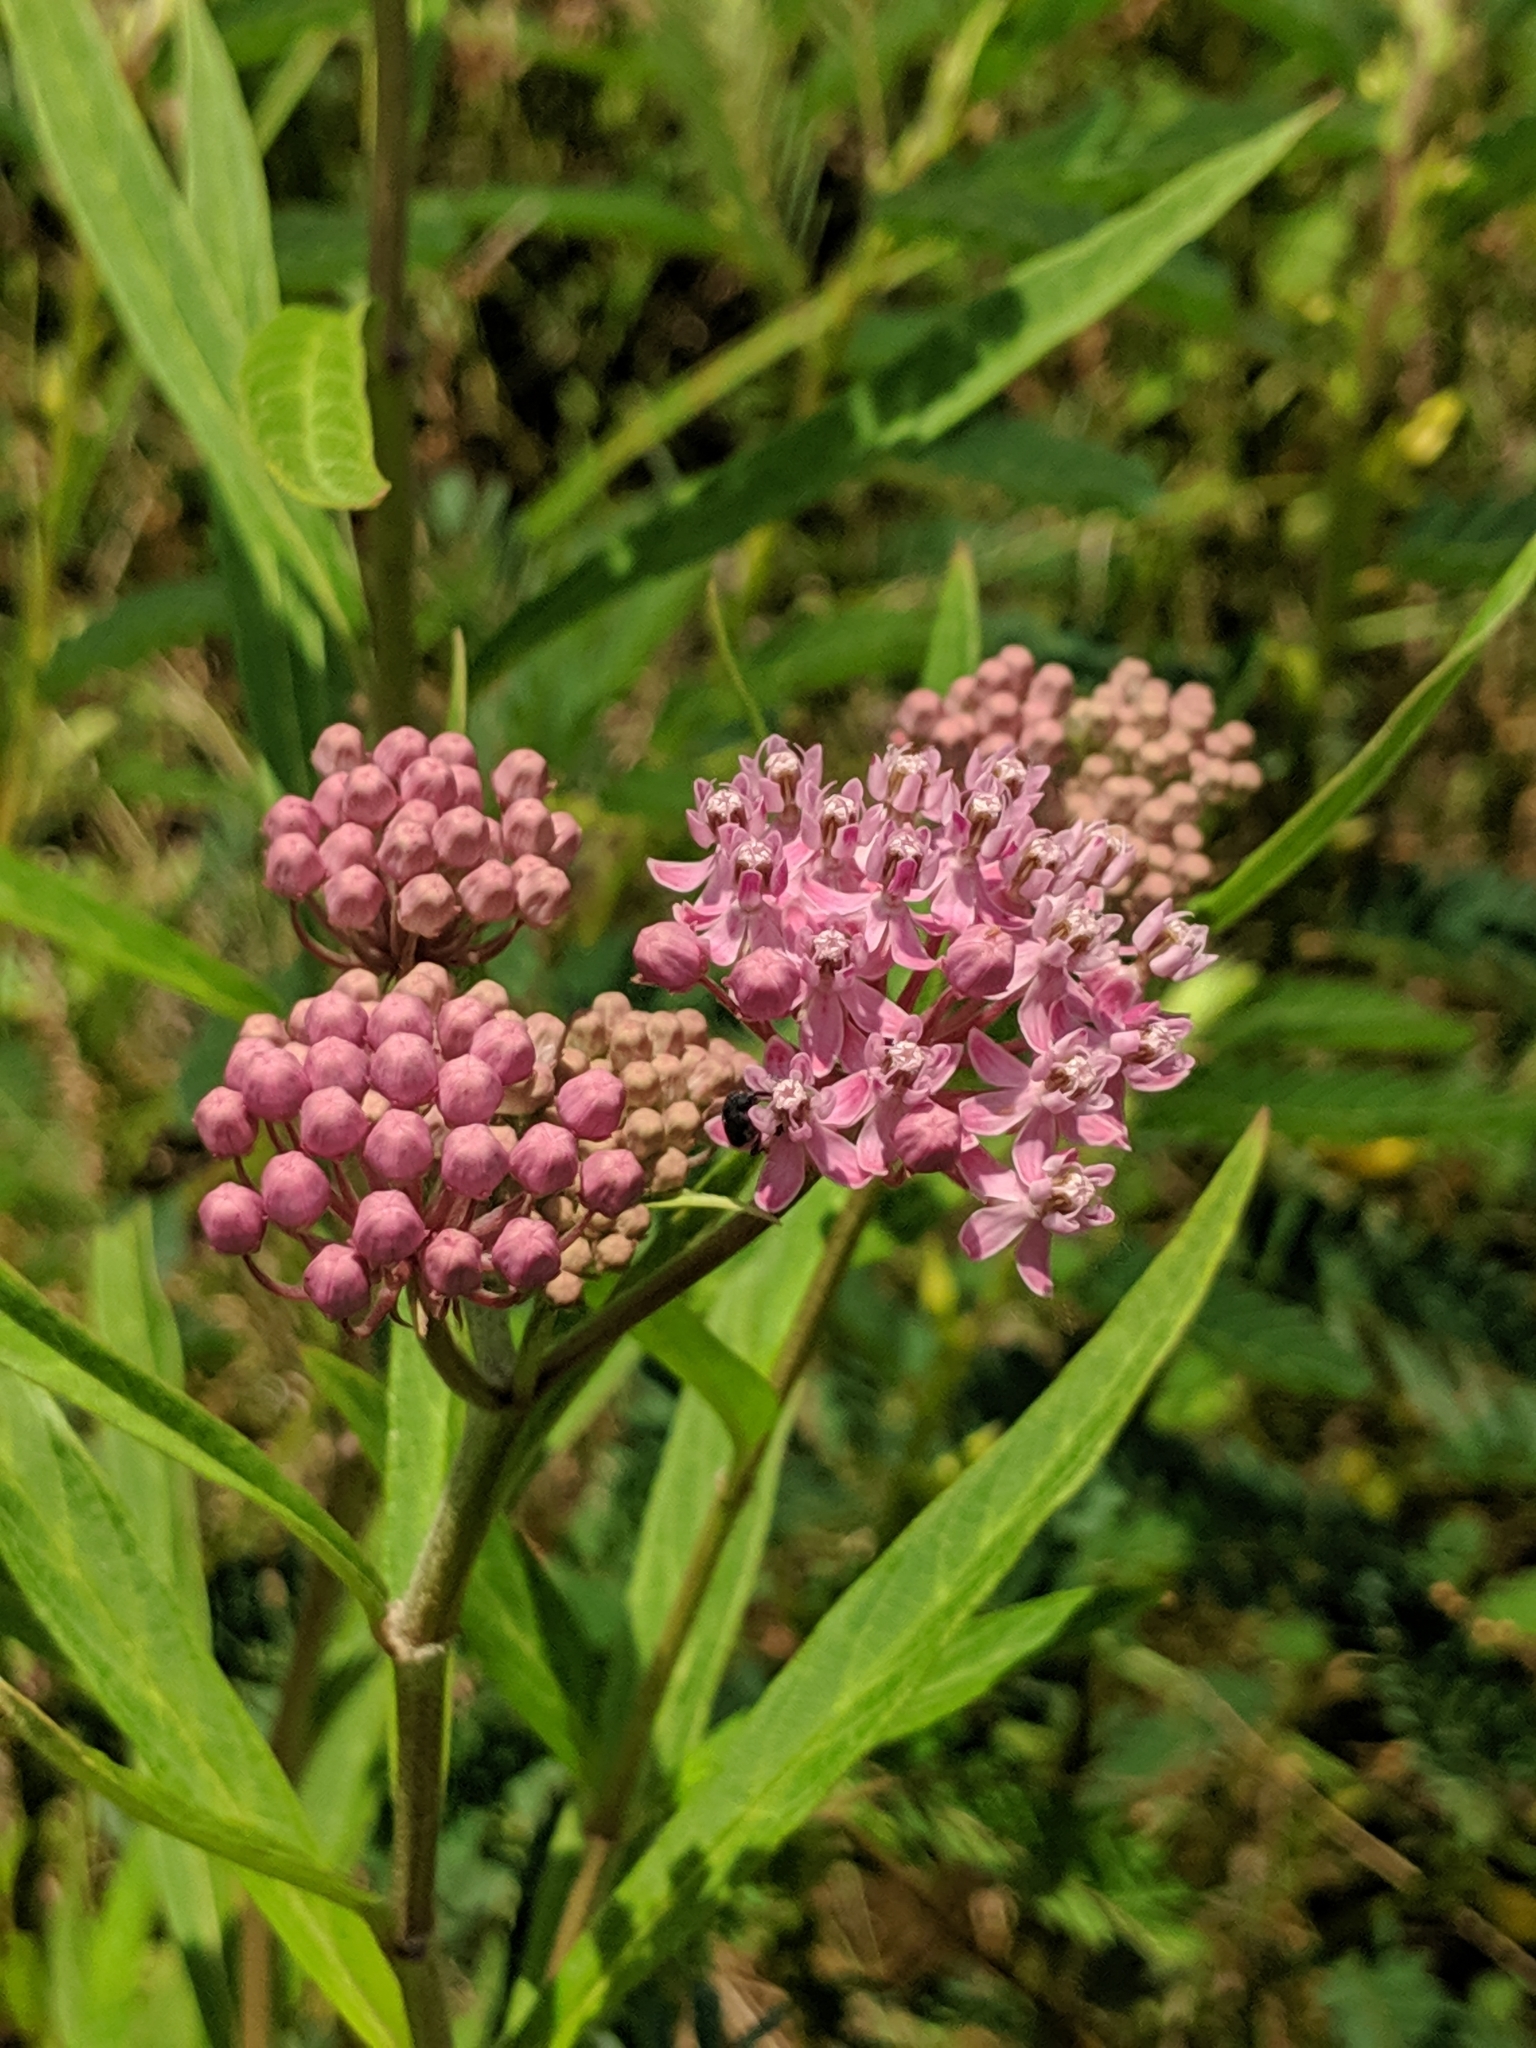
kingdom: Plantae
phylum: Tracheophyta
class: Magnoliopsida
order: Gentianales
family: Apocynaceae
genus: Asclepias
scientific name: Asclepias incarnata
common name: Swamp milkweed
